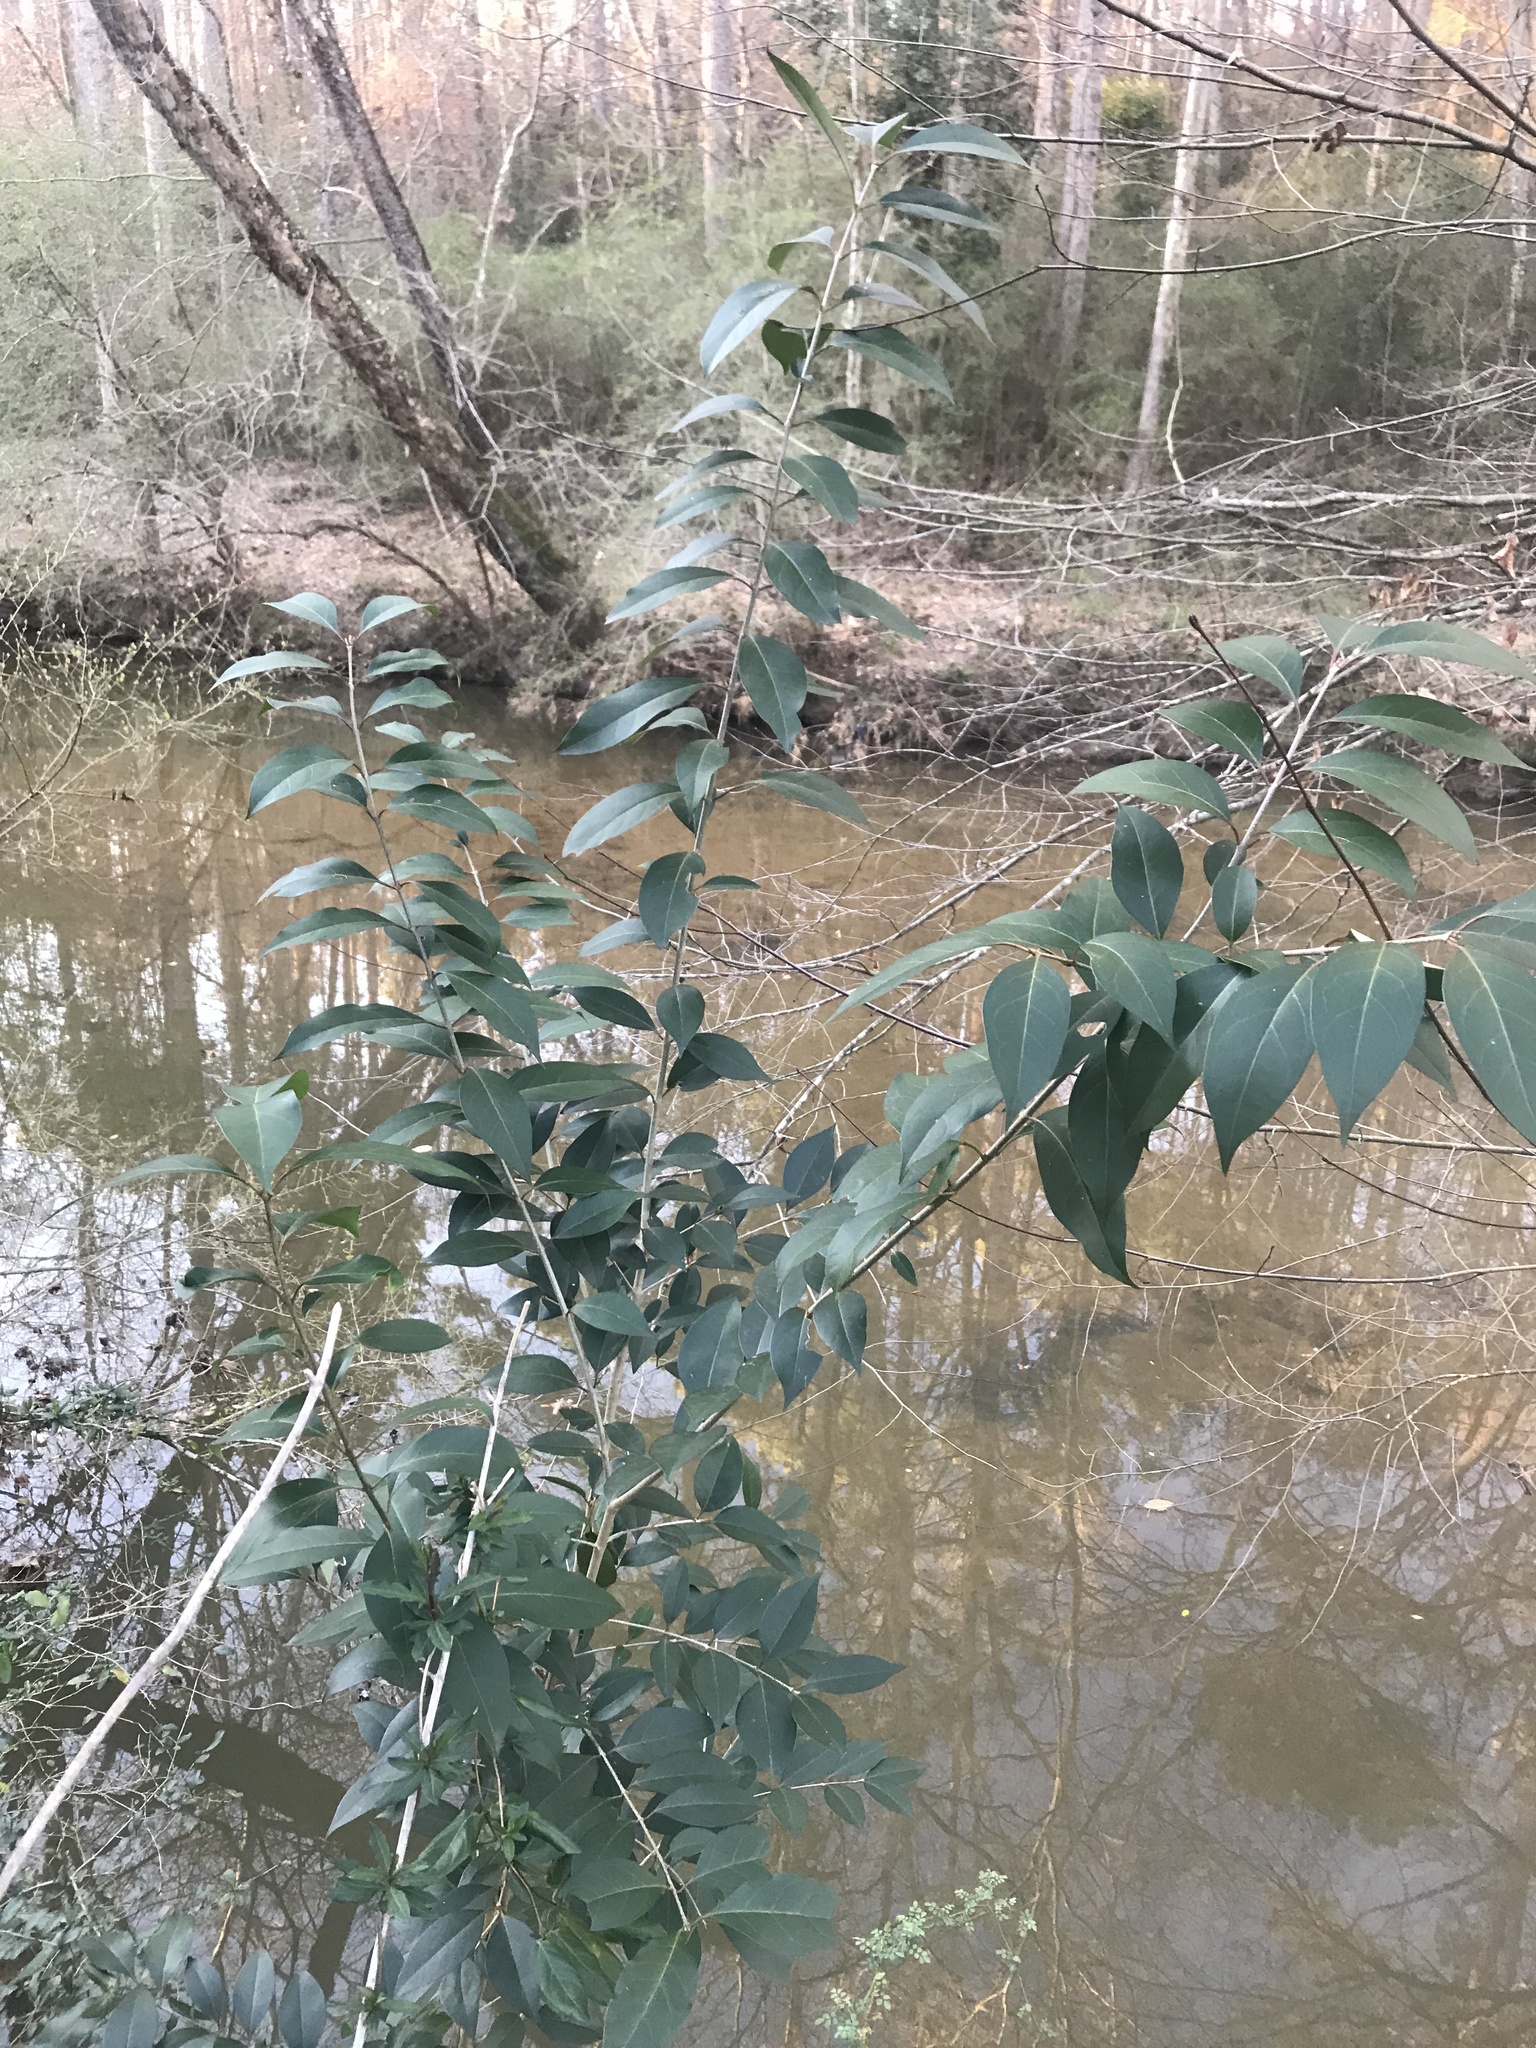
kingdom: Plantae
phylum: Tracheophyta
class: Magnoliopsida
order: Lamiales
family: Oleaceae
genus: Ligustrum
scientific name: Ligustrum lucidum
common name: Glossy privet
